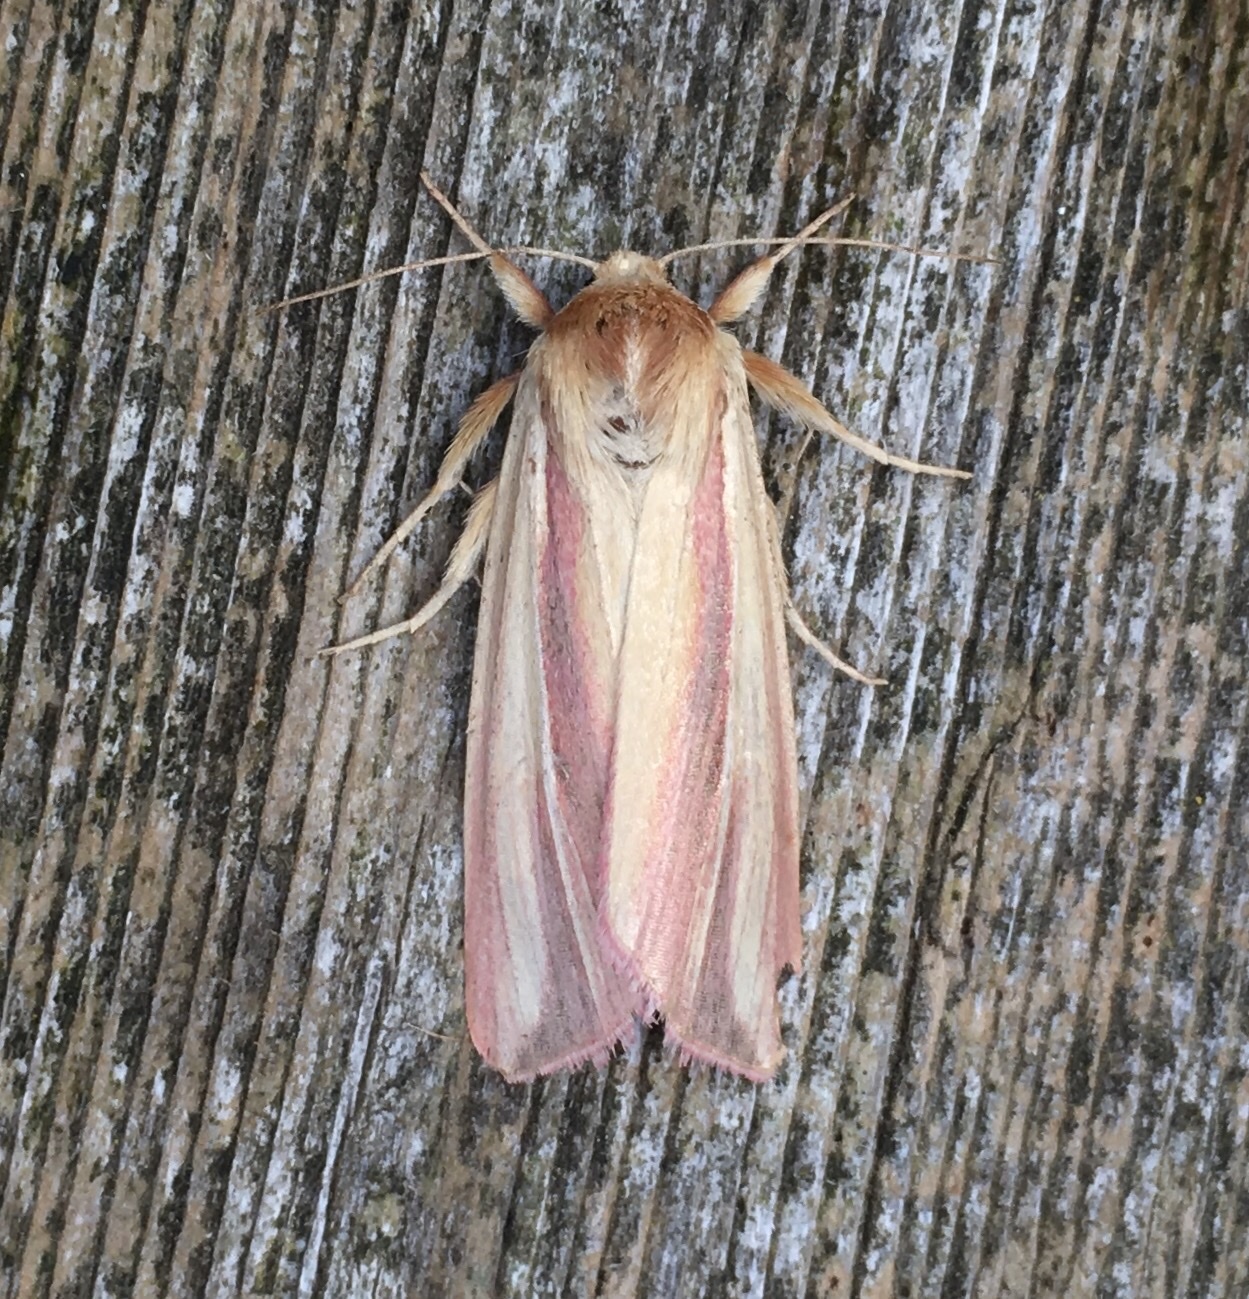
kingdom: Animalia
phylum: Arthropoda
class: Insecta
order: Lepidoptera
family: Noctuidae
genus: Dargida
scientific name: Dargida rubripennis
